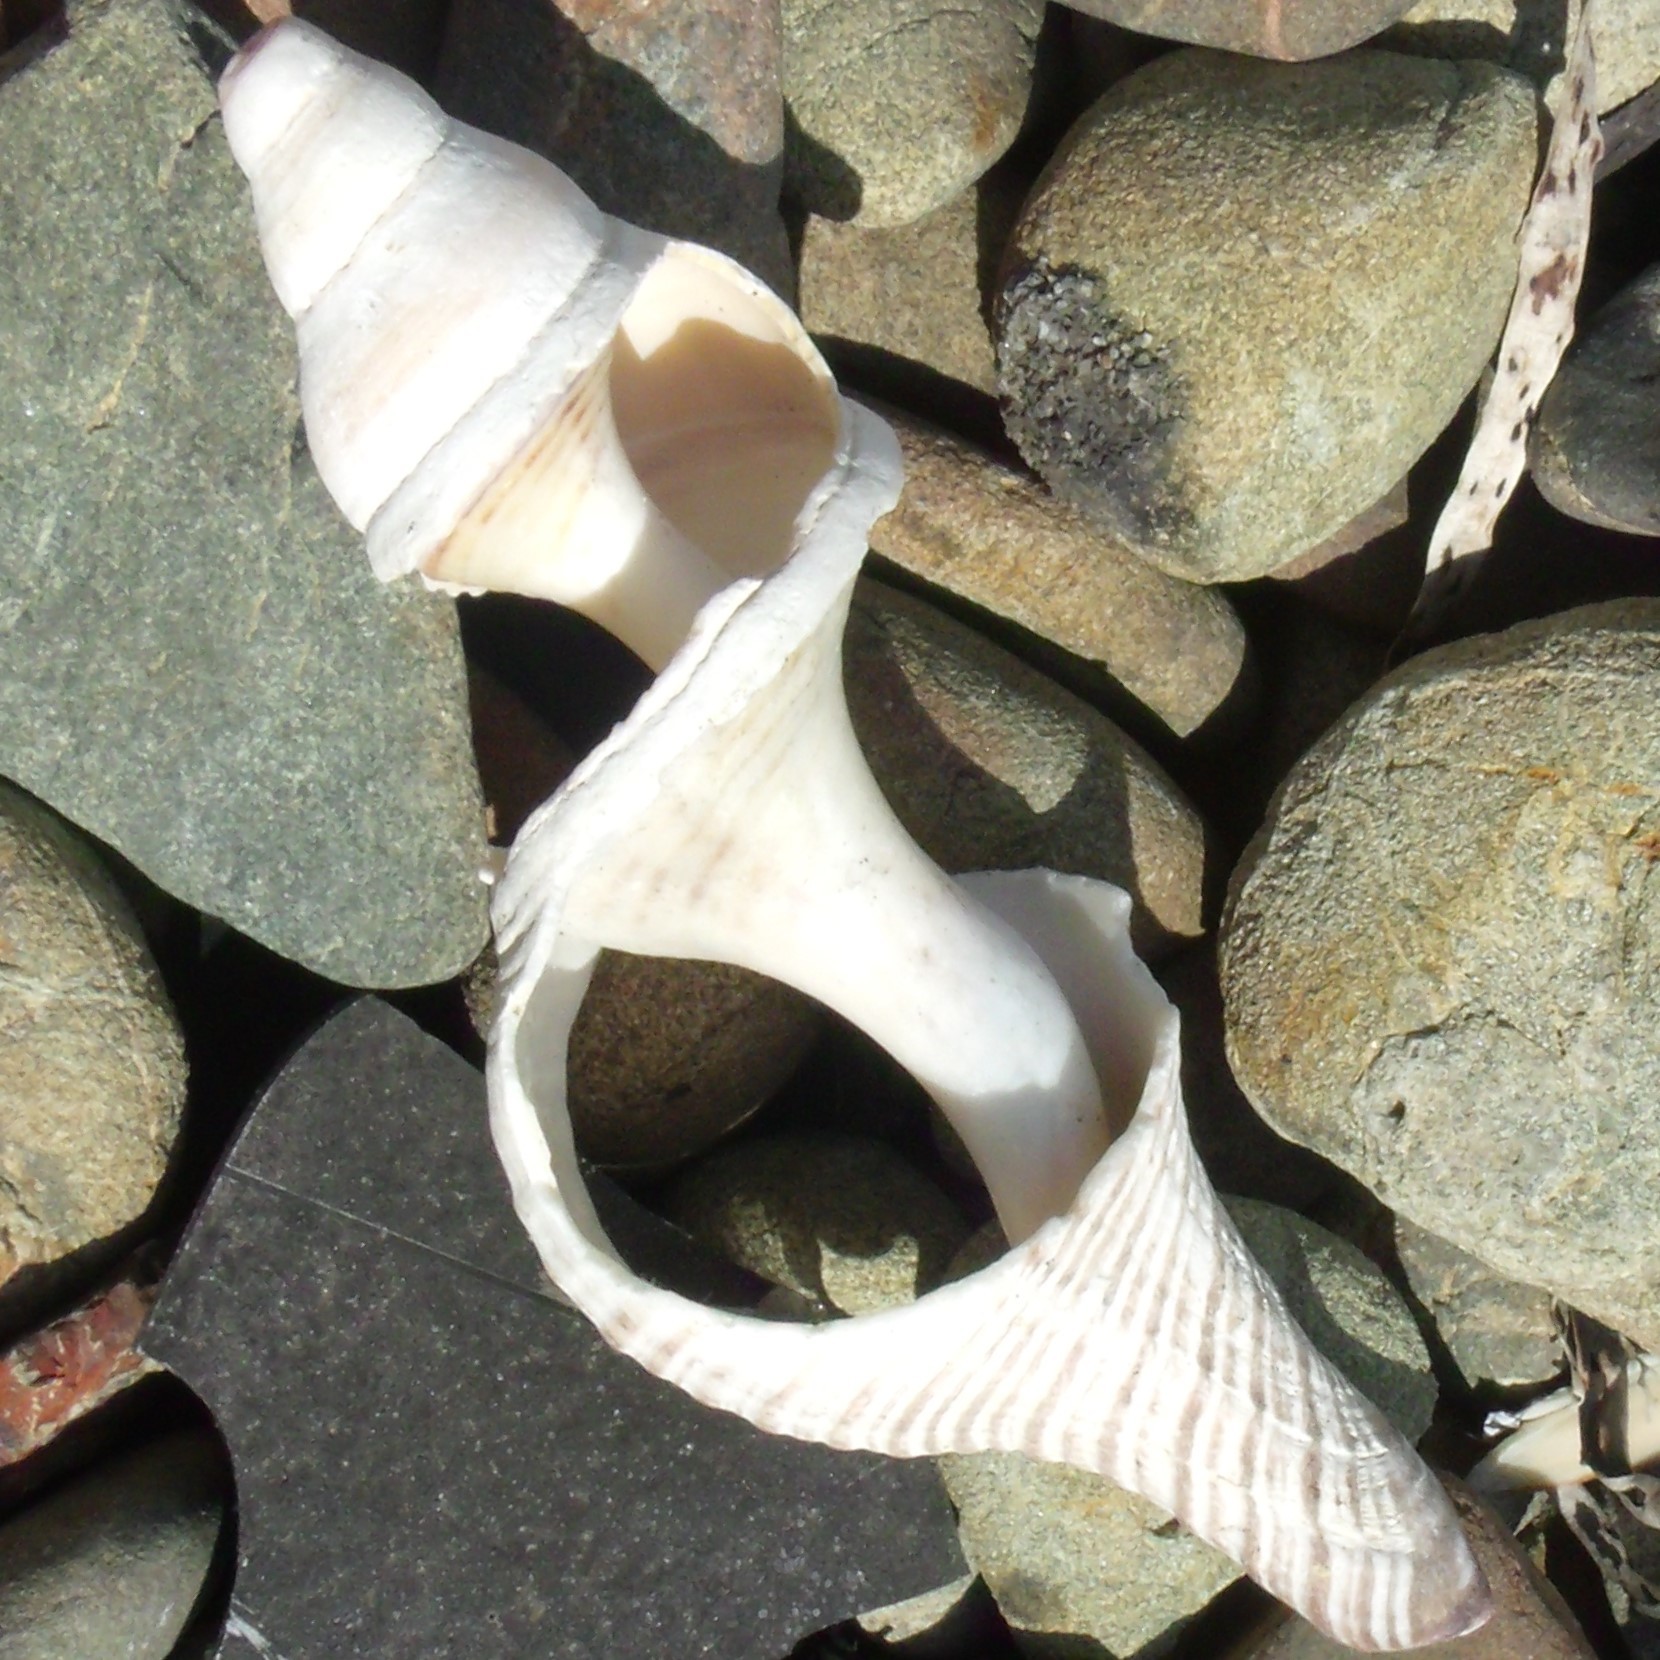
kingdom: Animalia
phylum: Mollusca
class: Gastropoda
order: Neogastropoda
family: Austrosiphonidae
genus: Penion
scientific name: Penion sulcatus
